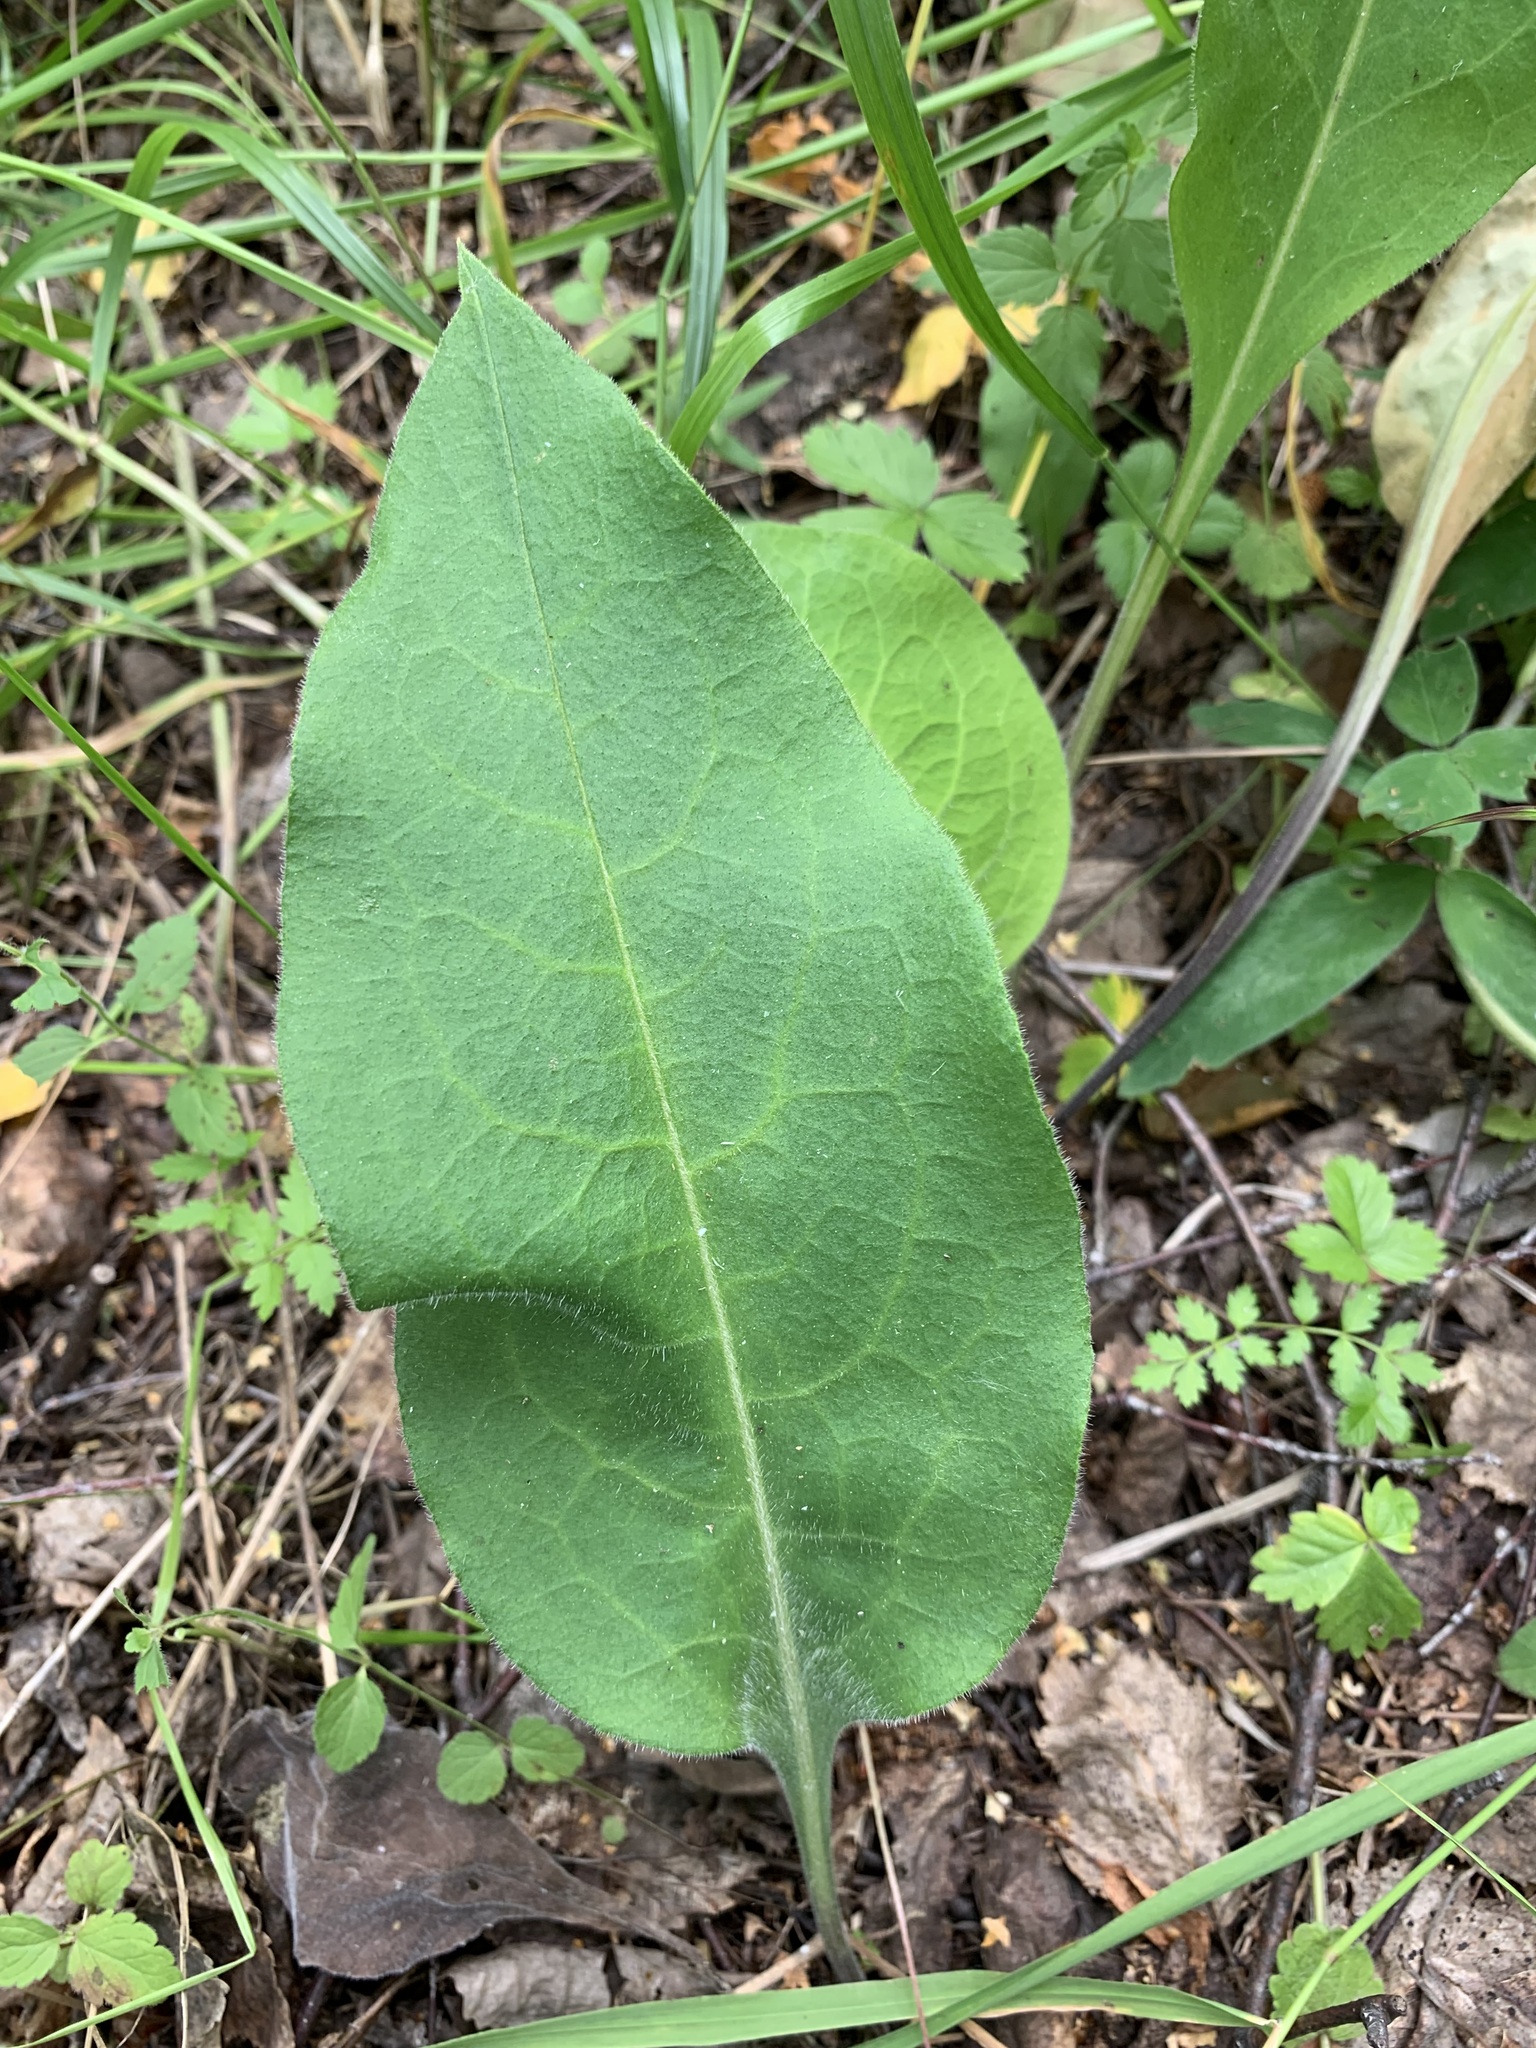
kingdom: Plantae
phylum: Tracheophyta
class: Magnoliopsida
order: Boraginales
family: Boraginaceae
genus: Pulmonaria
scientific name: Pulmonaria mollis
